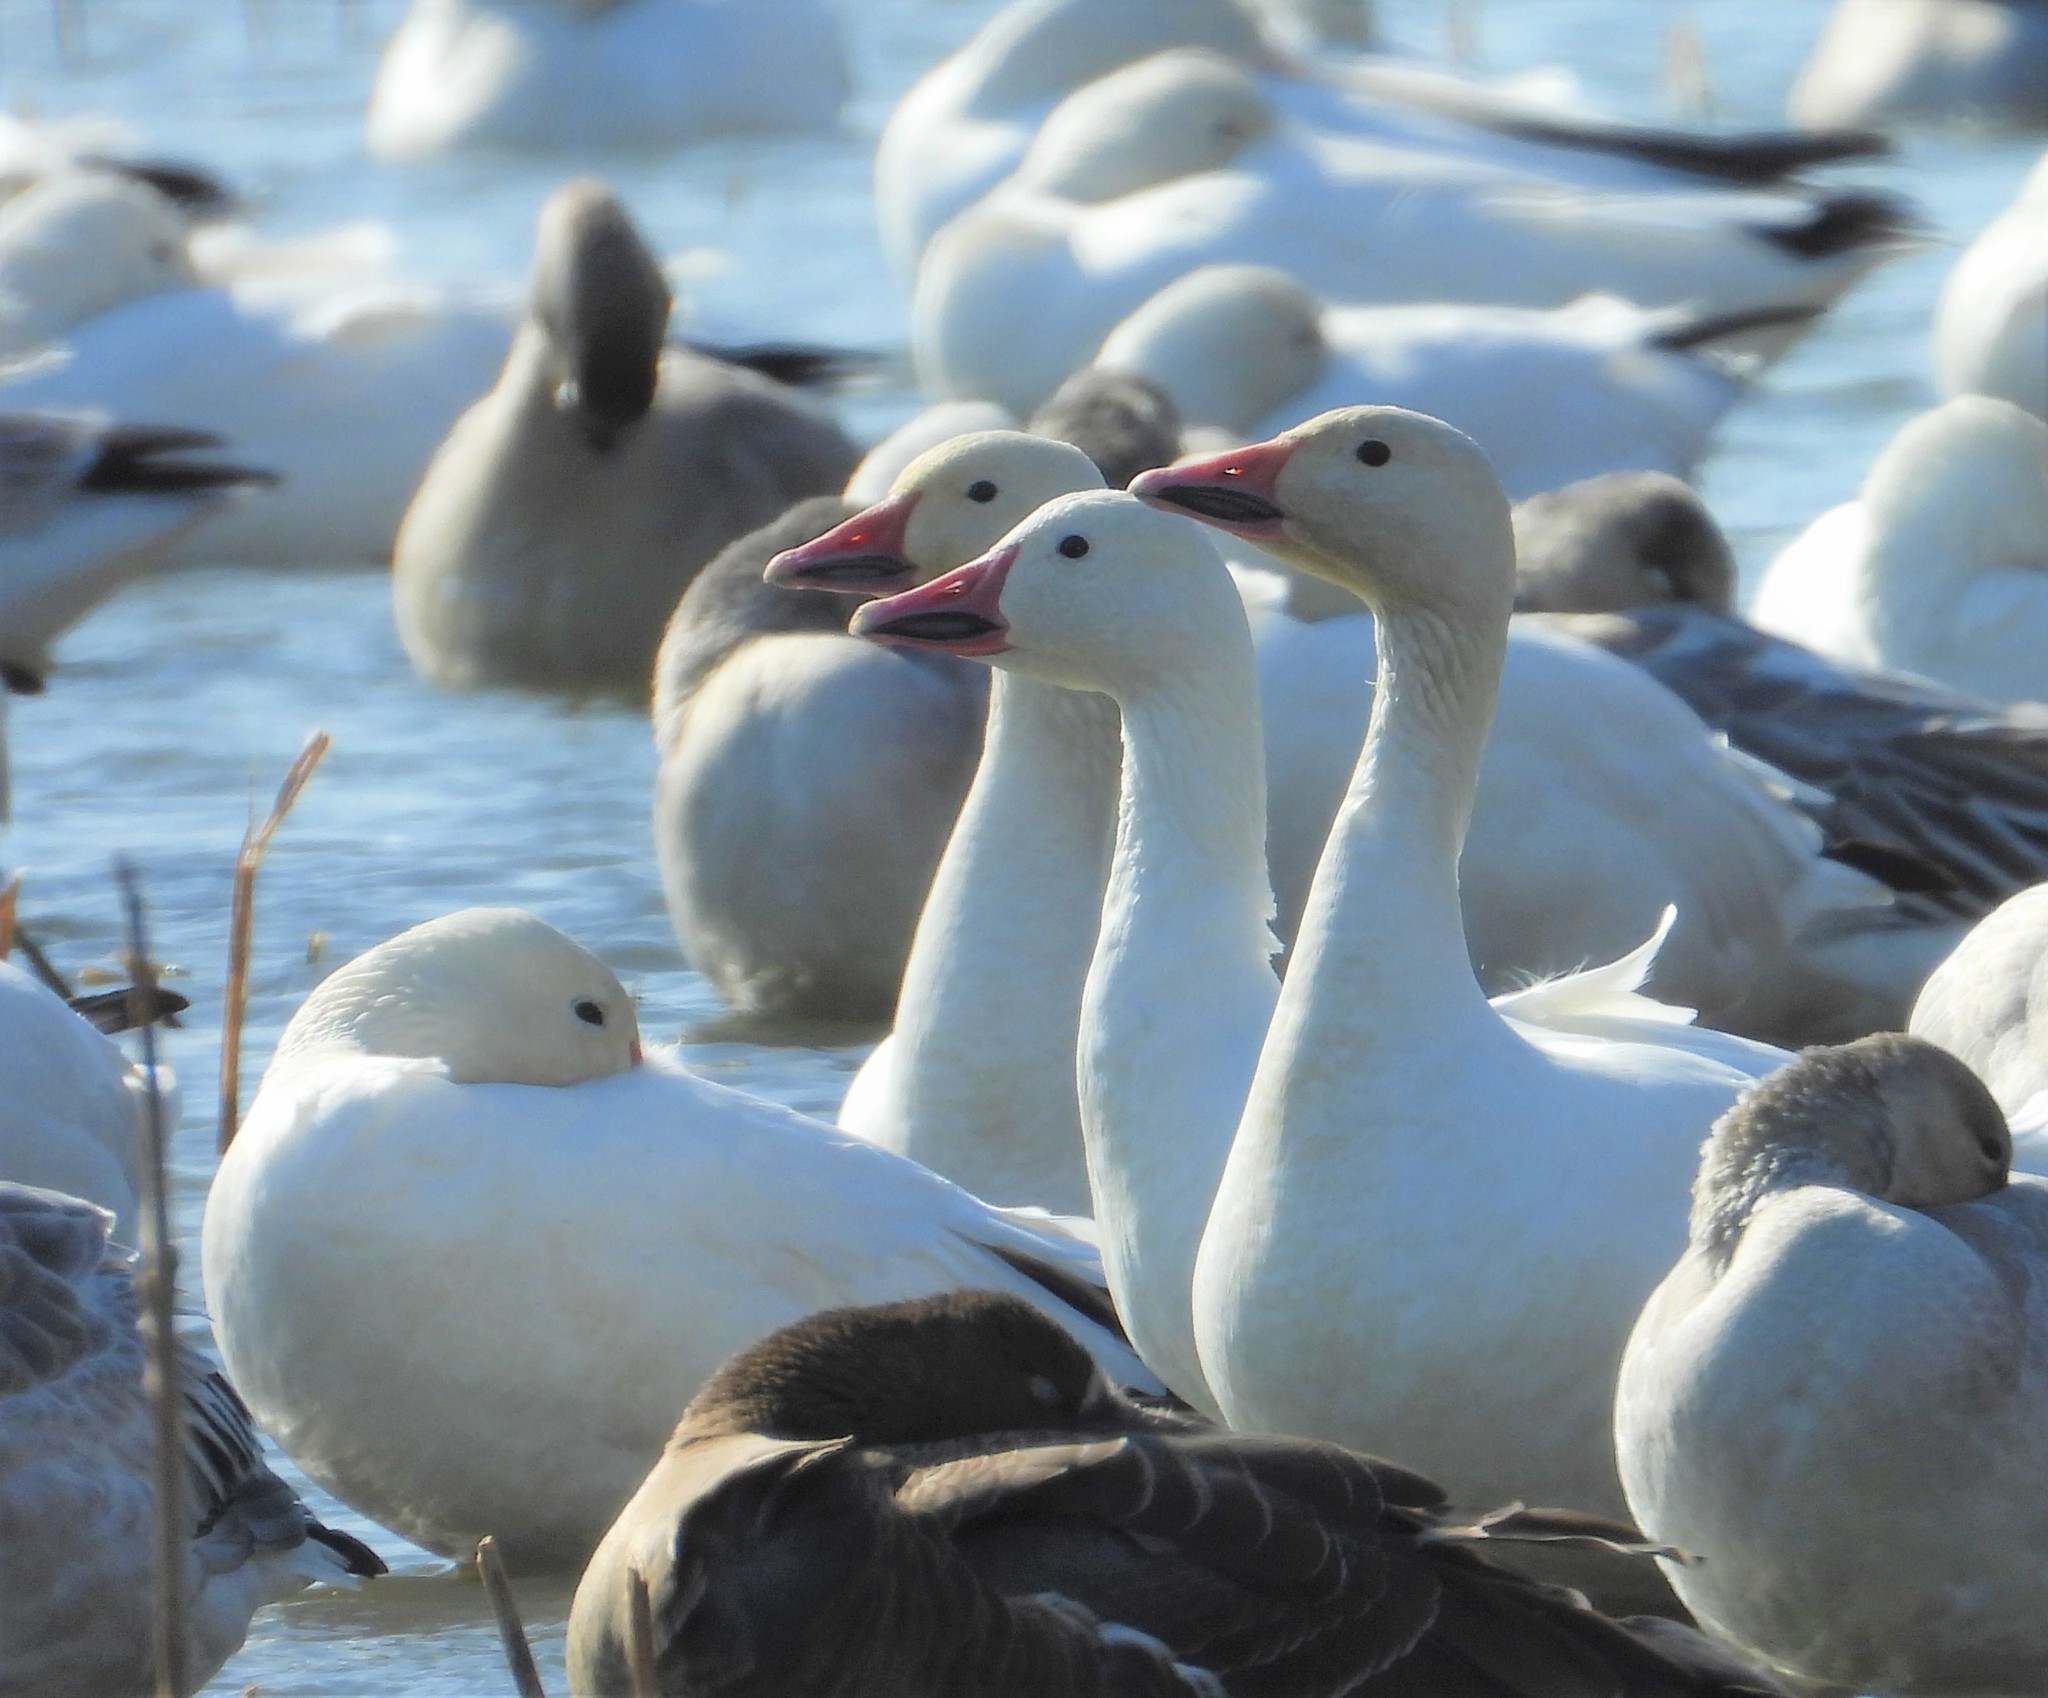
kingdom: Animalia
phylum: Chordata
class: Aves
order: Anseriformes
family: Anatidae
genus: Anser
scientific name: Anser caerulescens
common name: Snow goose
